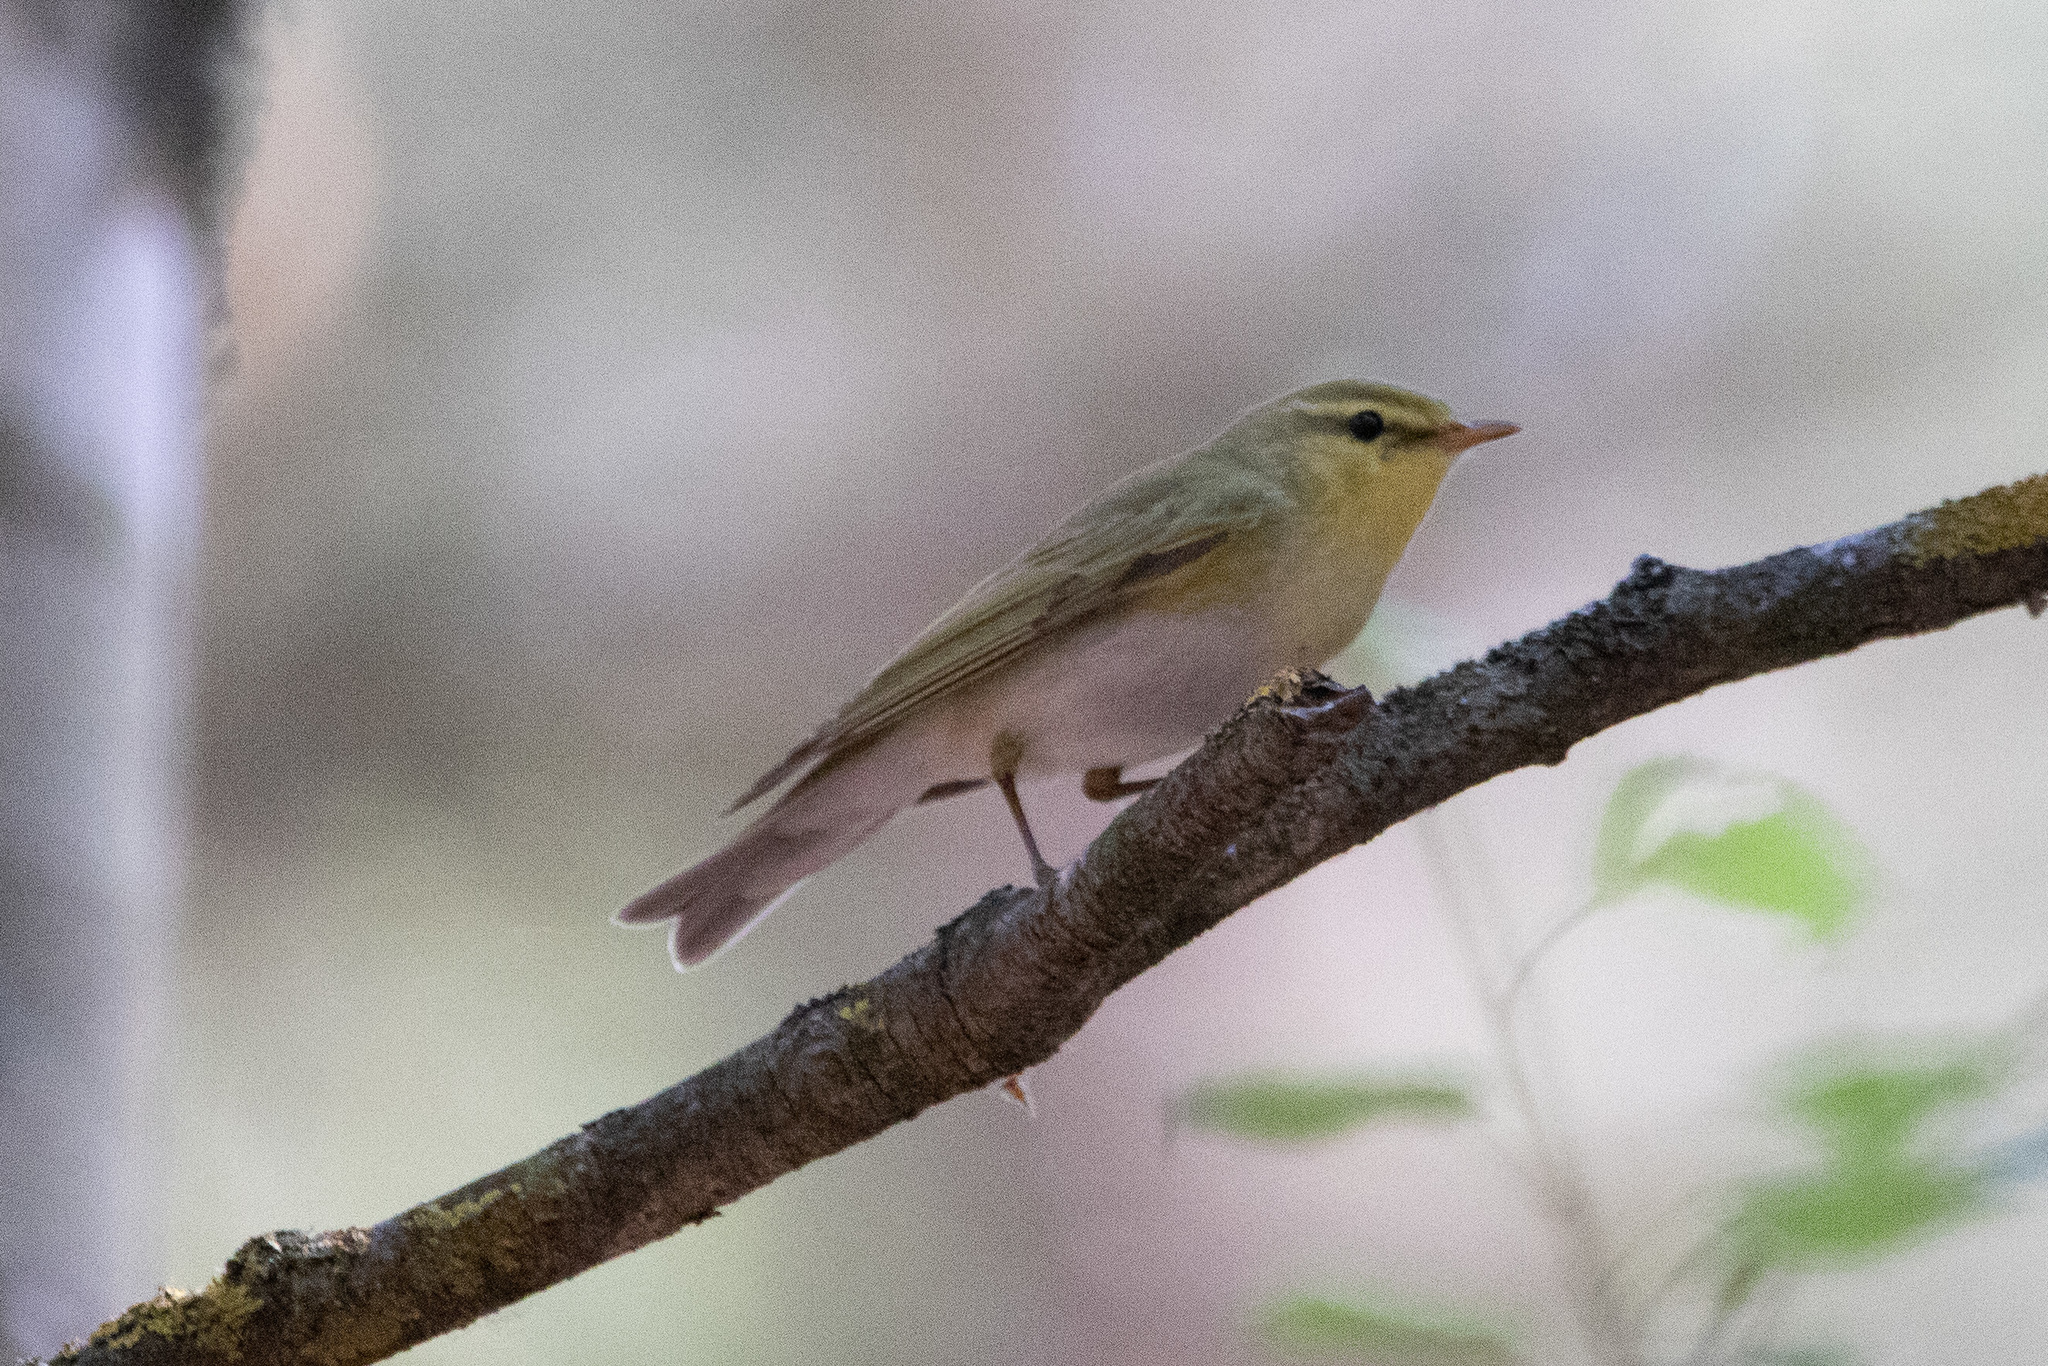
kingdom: Animalia
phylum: Chordata
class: Aves
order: Passeriformes
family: Phylloscopidae
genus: Phylloscopus
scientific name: Phylloscopus sibillatrix
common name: Wood warbler
